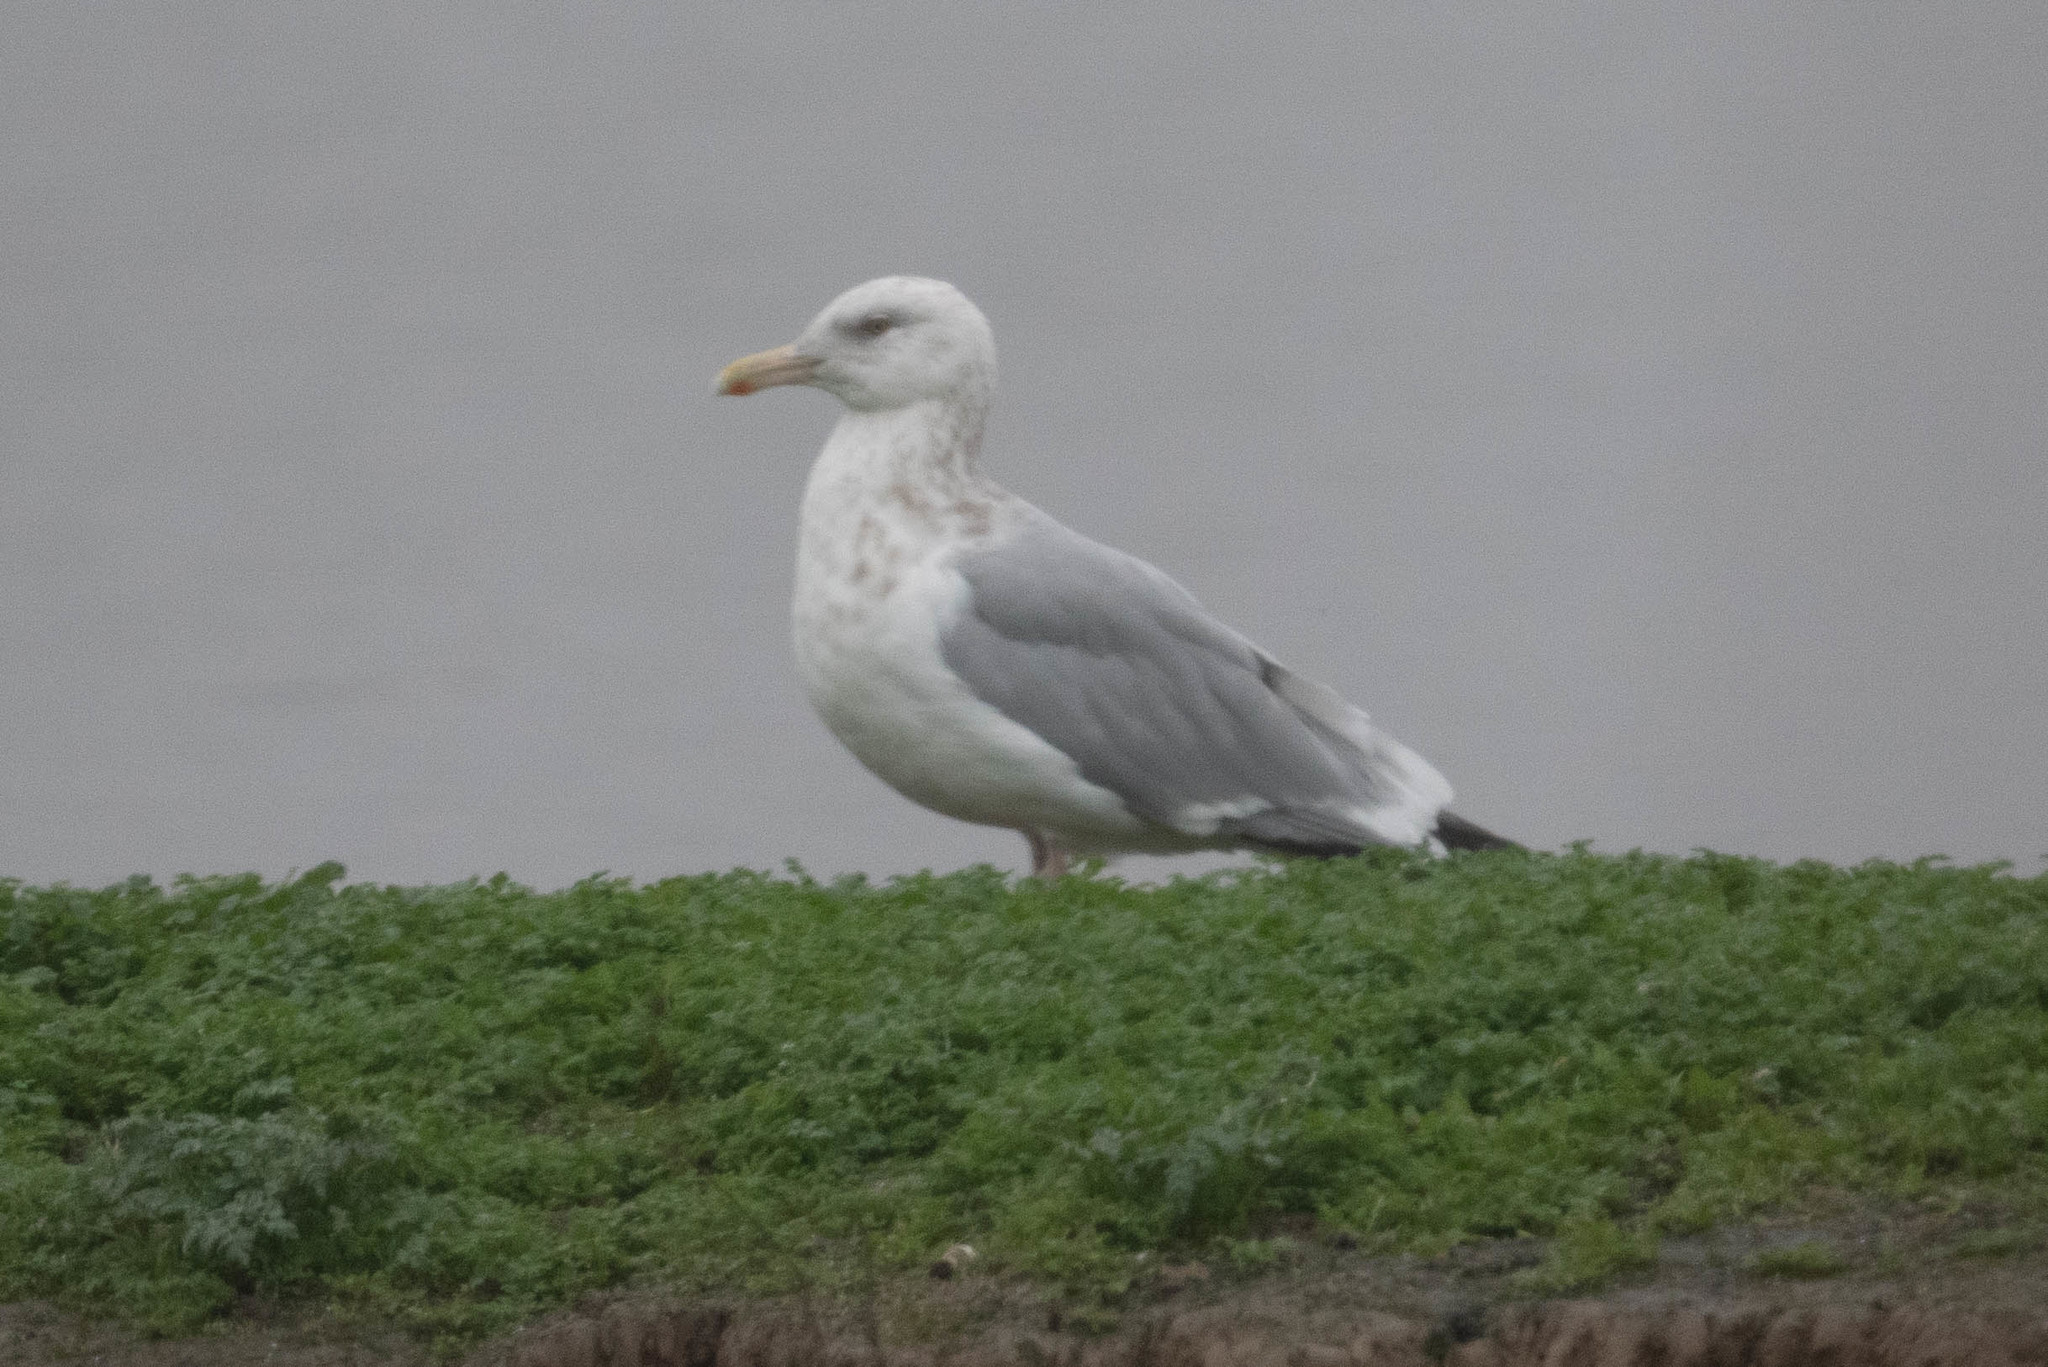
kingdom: Animalia
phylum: Chordata
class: Aves
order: Charadriiformes
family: Laridae
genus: Larus
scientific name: Larus argentatus
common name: Herring gull
